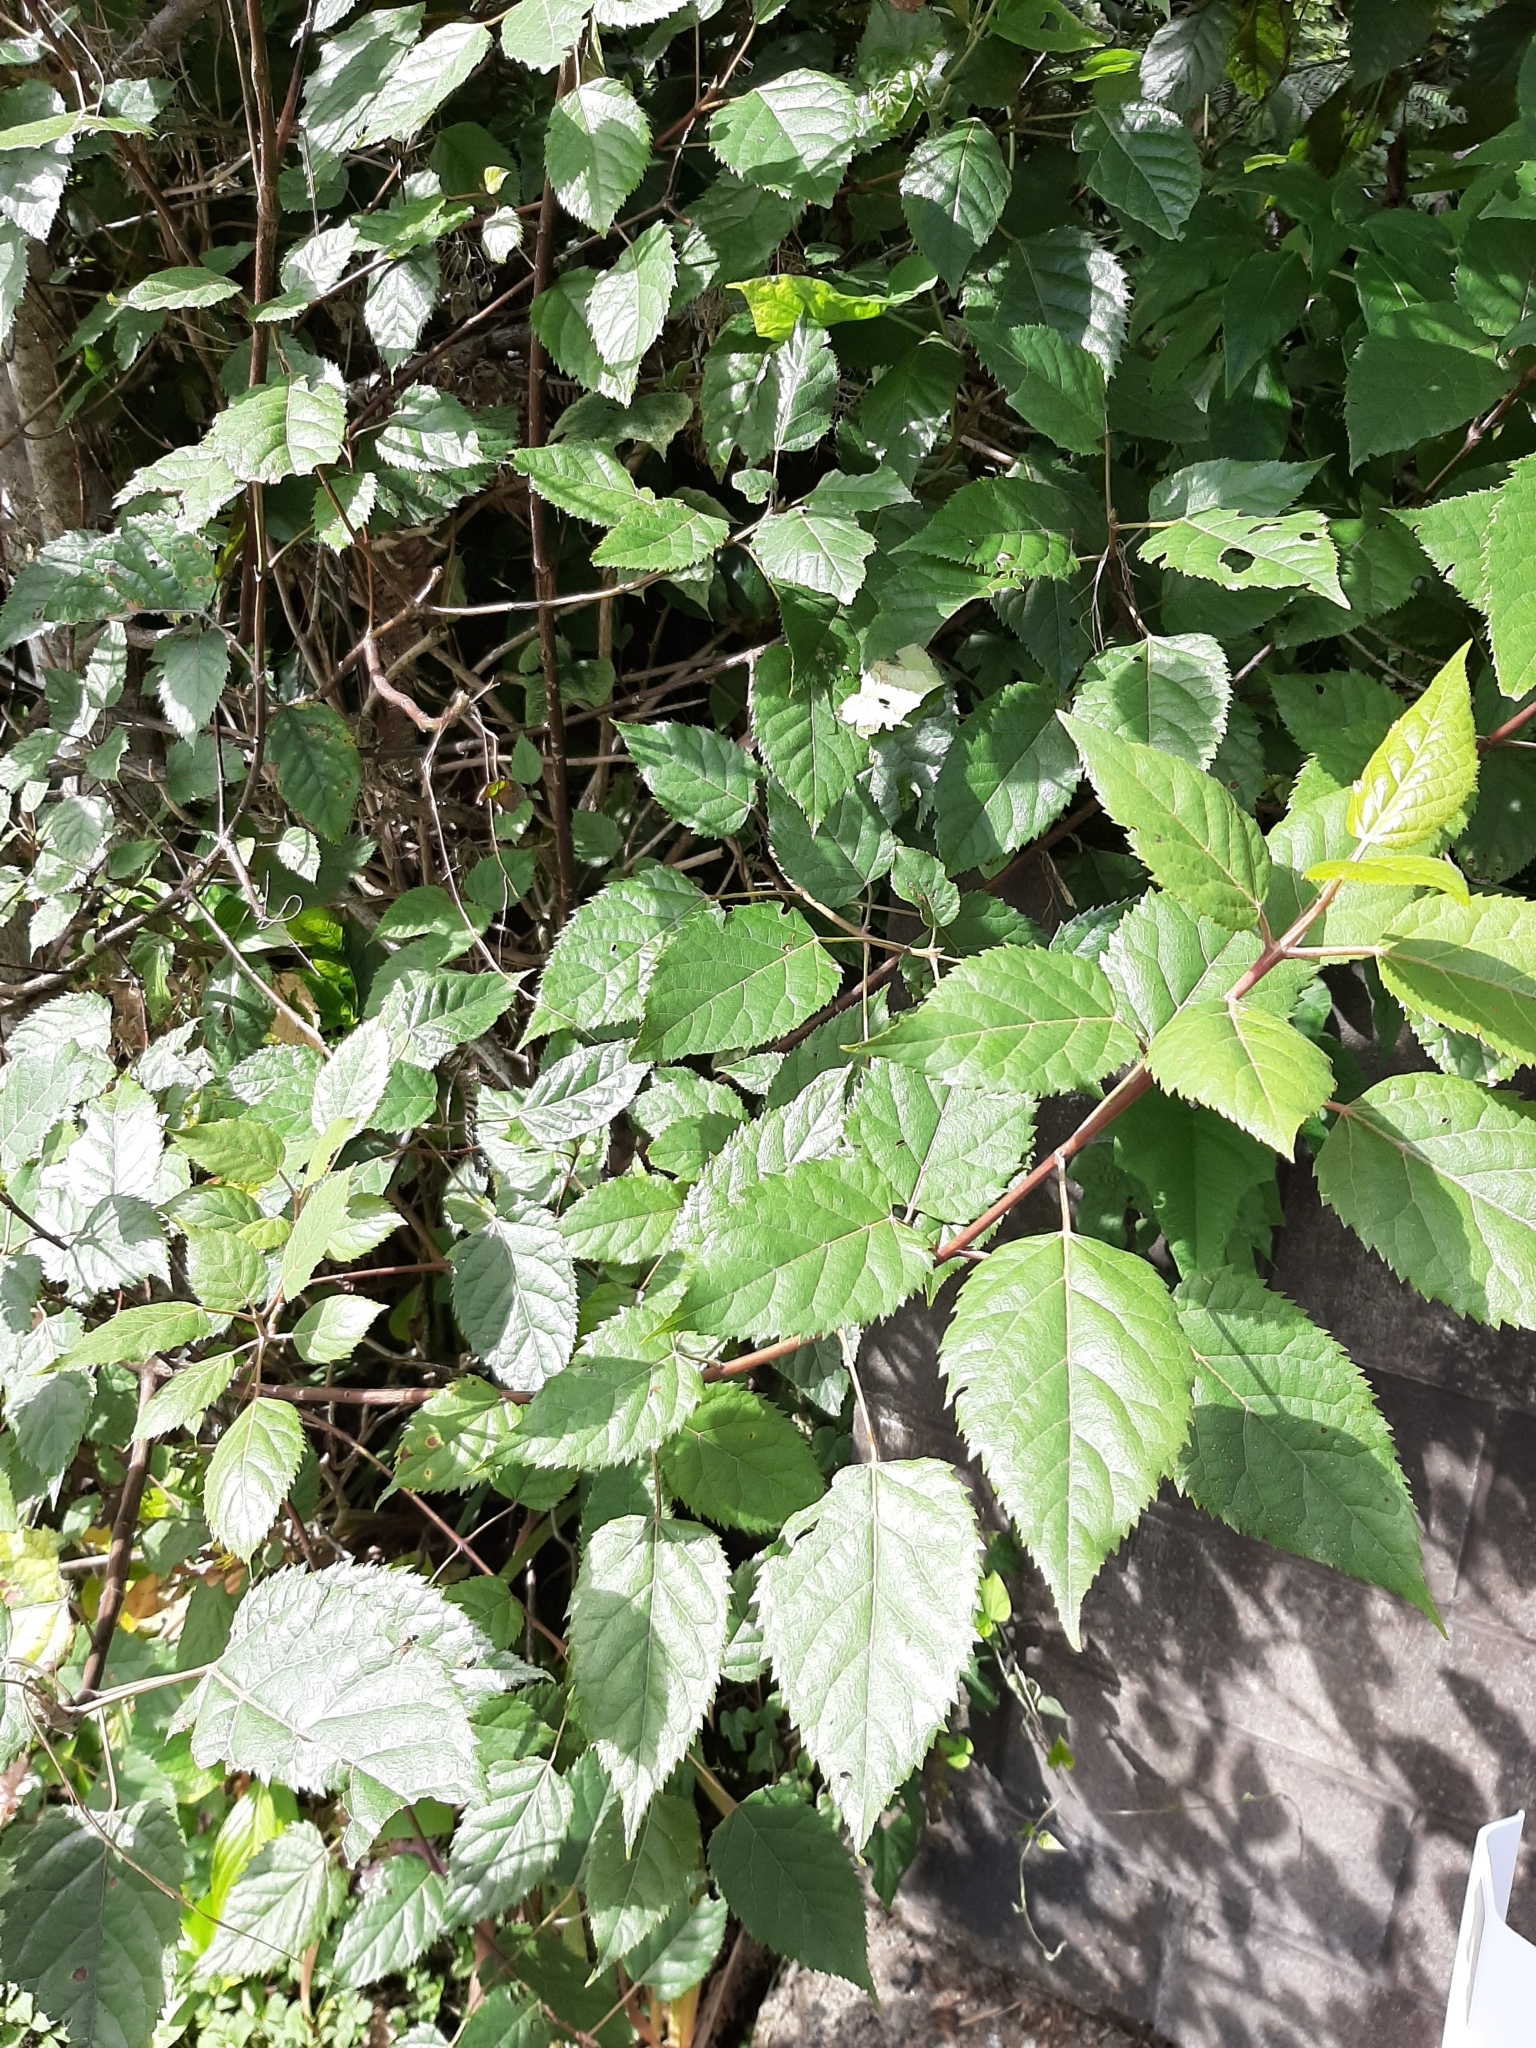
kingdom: Plantae
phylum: Tracheophyta
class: Magnoliopsida
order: Oxalidales
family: Elaeocarpaceae
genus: Aristotelia
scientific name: Aristotelia serrata
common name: New zealand wineberry
